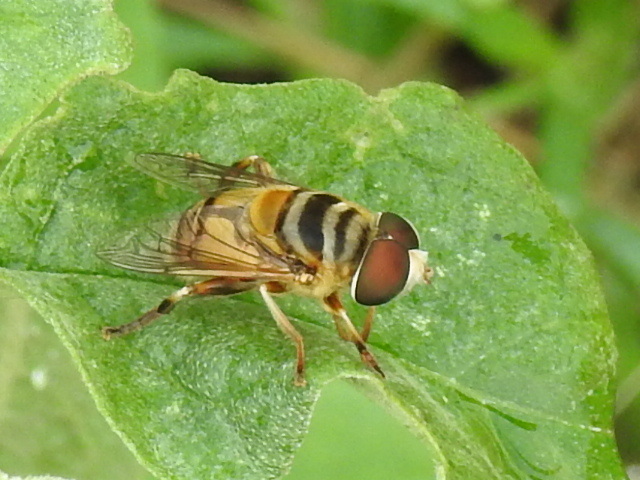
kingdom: Animalia
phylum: Arthropoda
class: Insecta
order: Diptera
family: Syrphidae
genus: Palpada
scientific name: Palpada vinetorum
